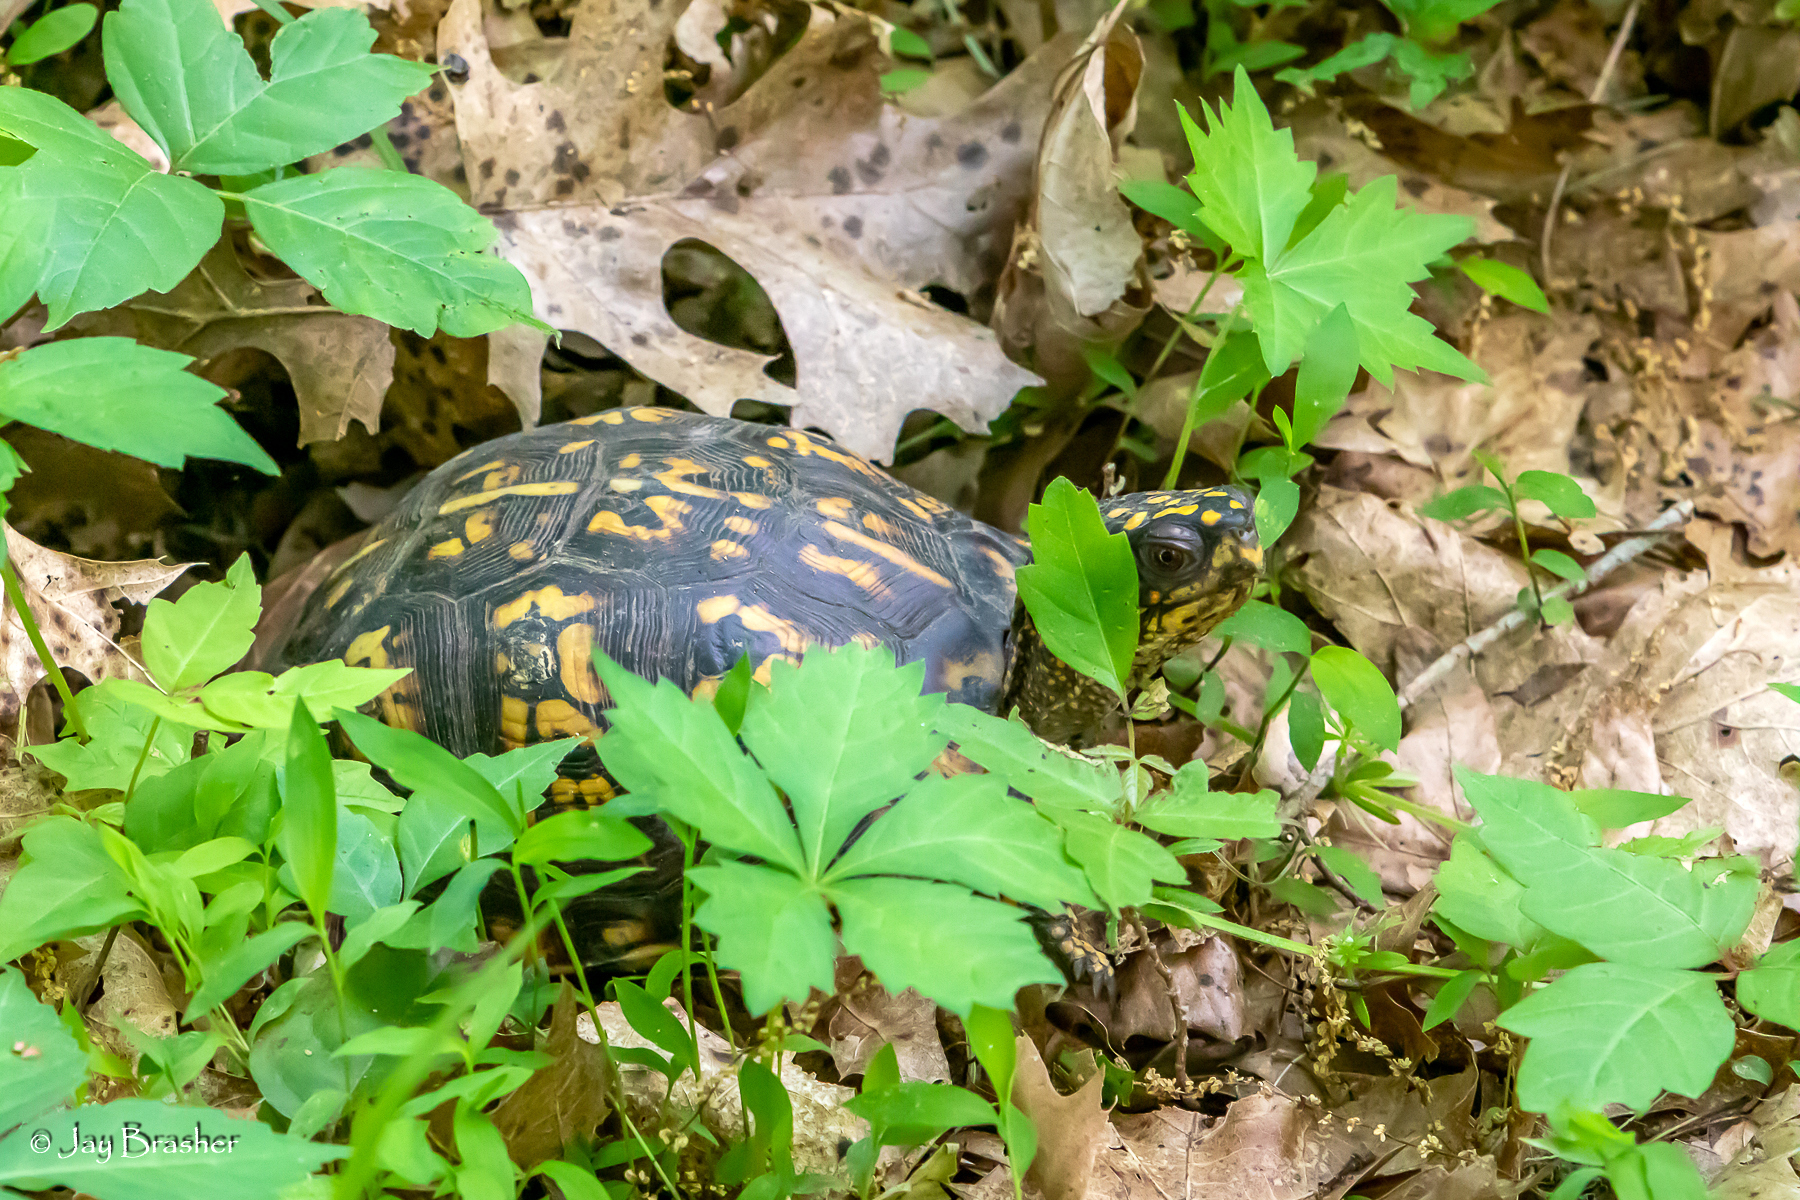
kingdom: Animalia
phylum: Chordata
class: Testudines
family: Emydidae
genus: Terrapene
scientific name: Terrapene carolina
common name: Common box turtle
